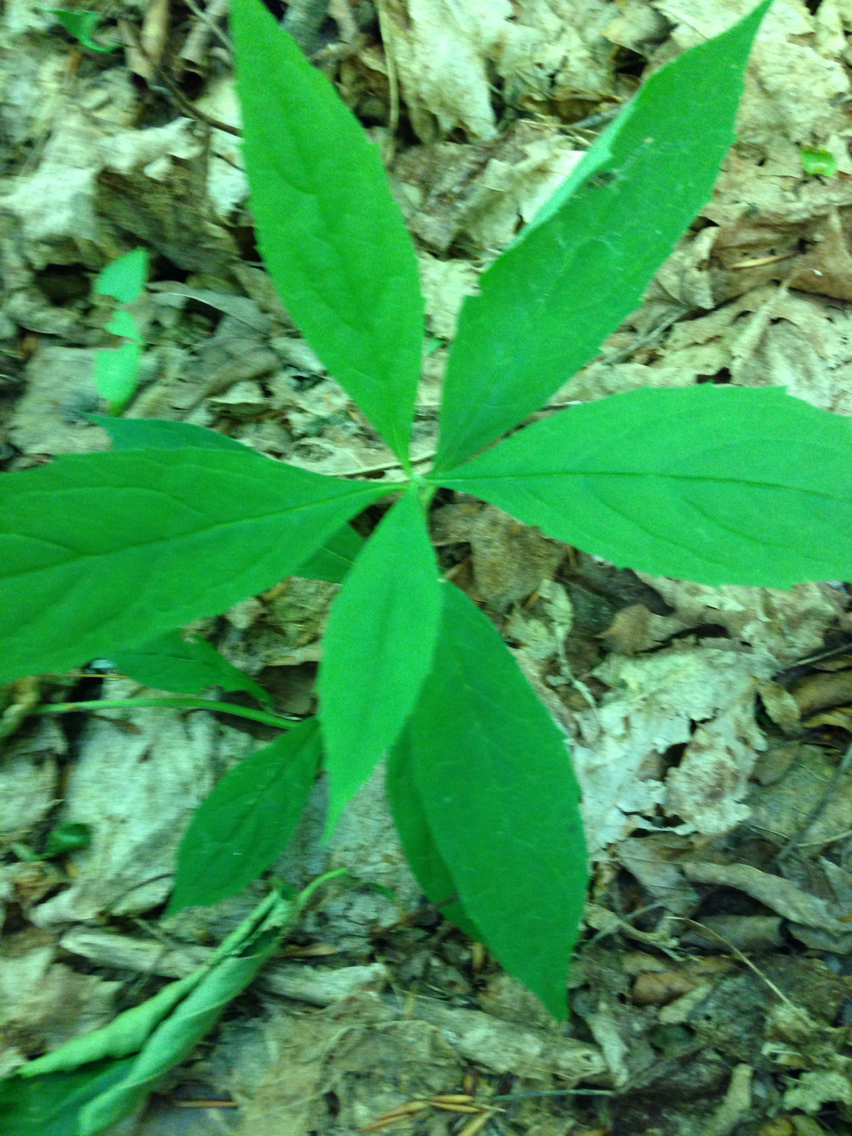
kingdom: Plantae
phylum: Tracheophyta
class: Magnoliopsida
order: Asterales
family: Asteraceae
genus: Oclemena
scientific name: Oclemena acuminata
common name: Mountain aster
